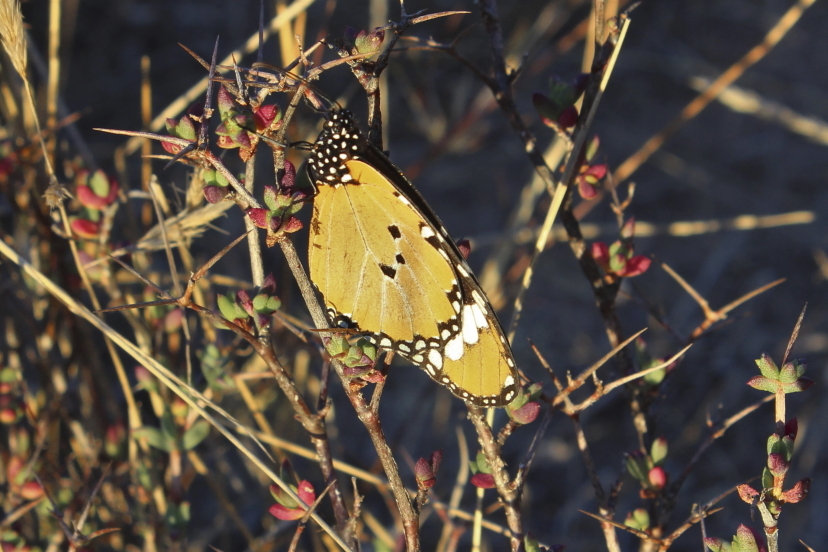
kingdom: Animalia
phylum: Arthropoda
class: Insecta
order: Lepidoptera
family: Nymphalidae
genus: Danaus
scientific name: Danaus chrysippus
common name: Plain tiger
